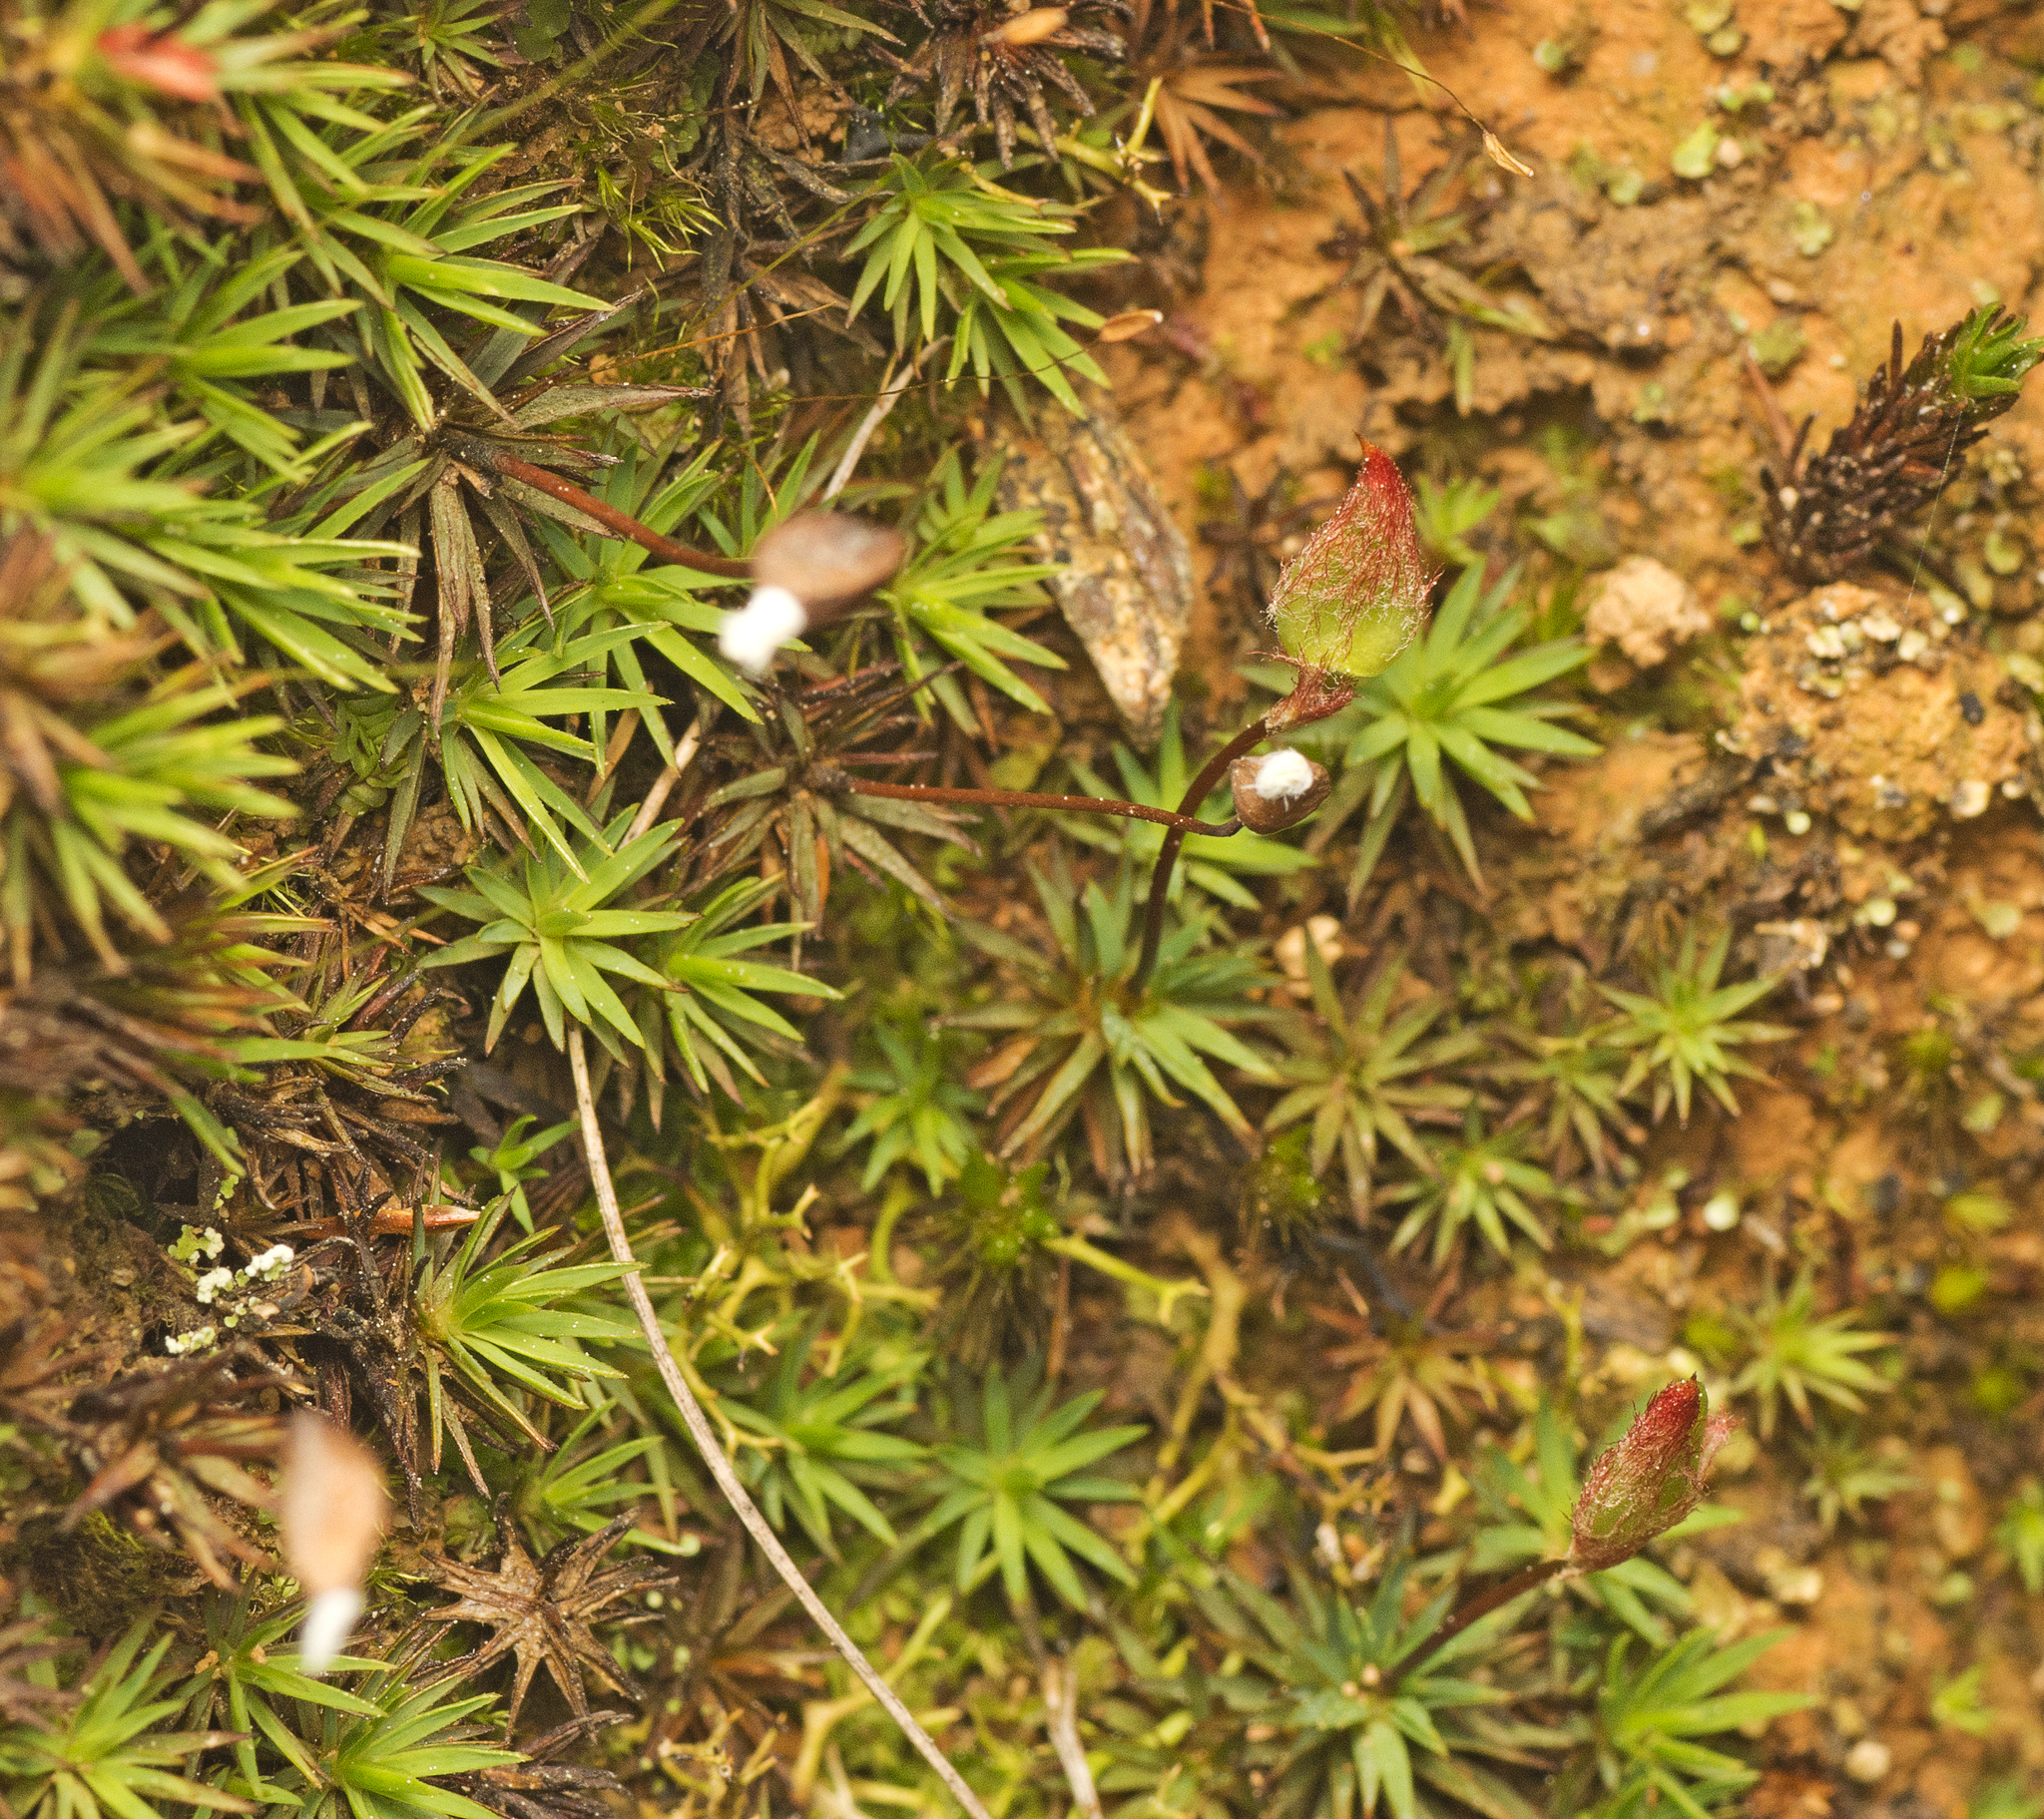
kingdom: Plantae
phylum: Bryophyta
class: Polytrichopsida
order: Polytrichales
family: Polytrichaceae
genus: Dawsonia
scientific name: Dawsonia longiseta
